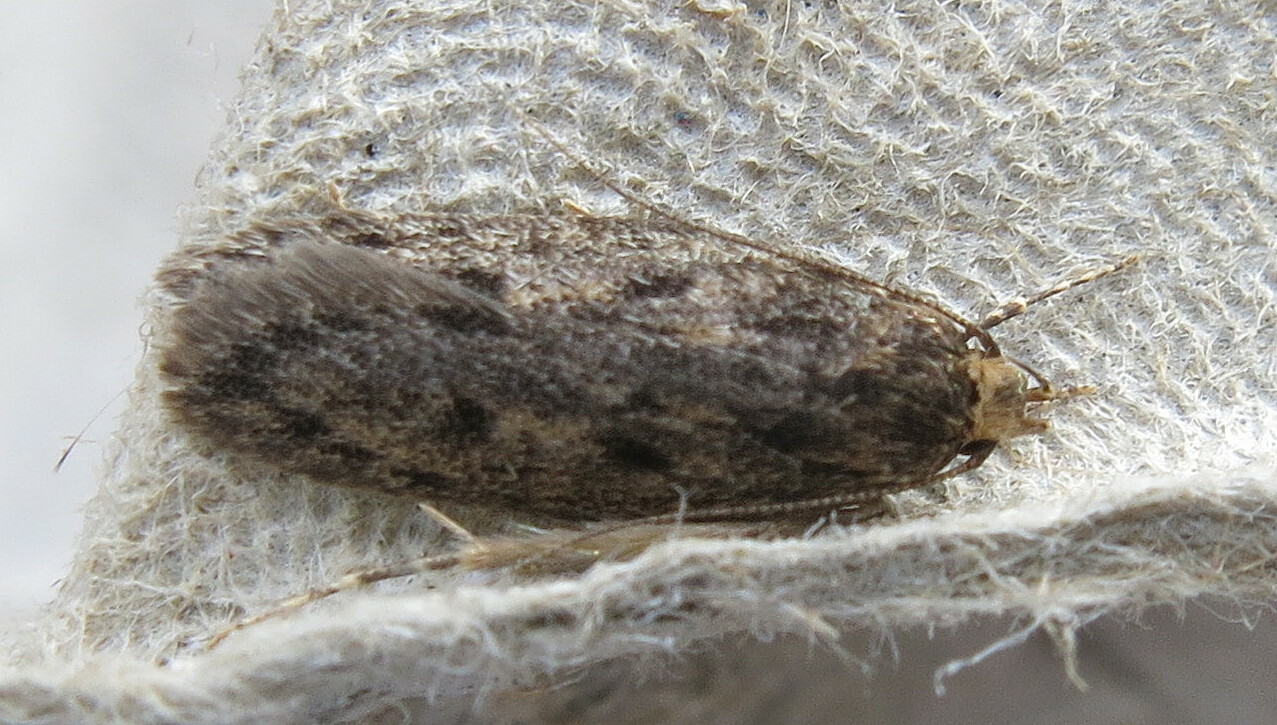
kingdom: Animalia
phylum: Arthropoda
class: Insecta
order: Lepidoptera
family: Oecophoridae
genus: Hofmannophila
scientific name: Hofmannophila pseudospretella
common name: Brown house moth
